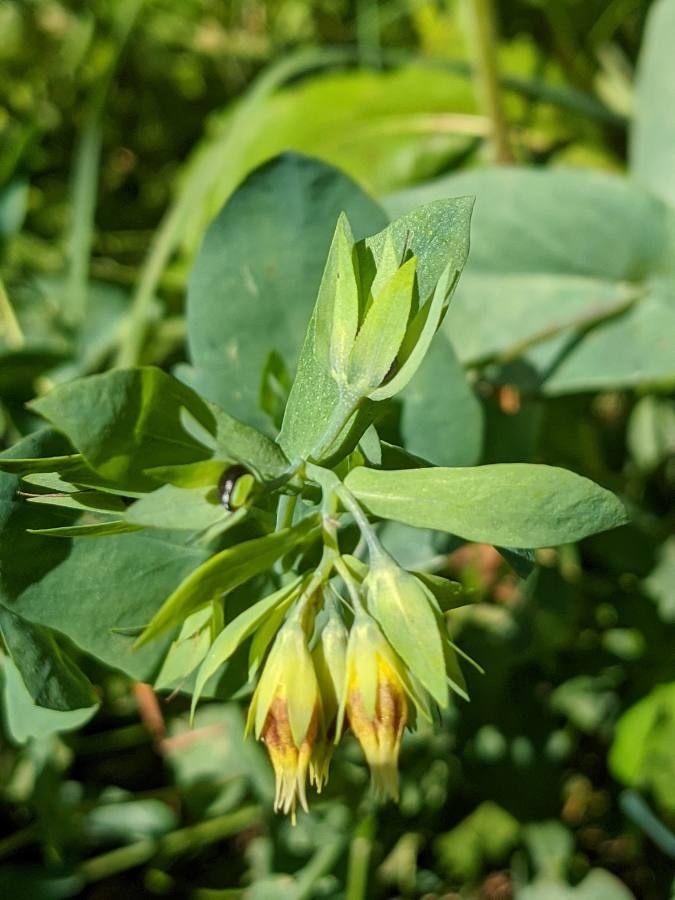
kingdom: Plantae
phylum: Tracheophyta
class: Magnoliopsida
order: Boraginales
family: Boraginaceae
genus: Cerinthe
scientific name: Cerinthe minor
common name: Lesser honeywort
